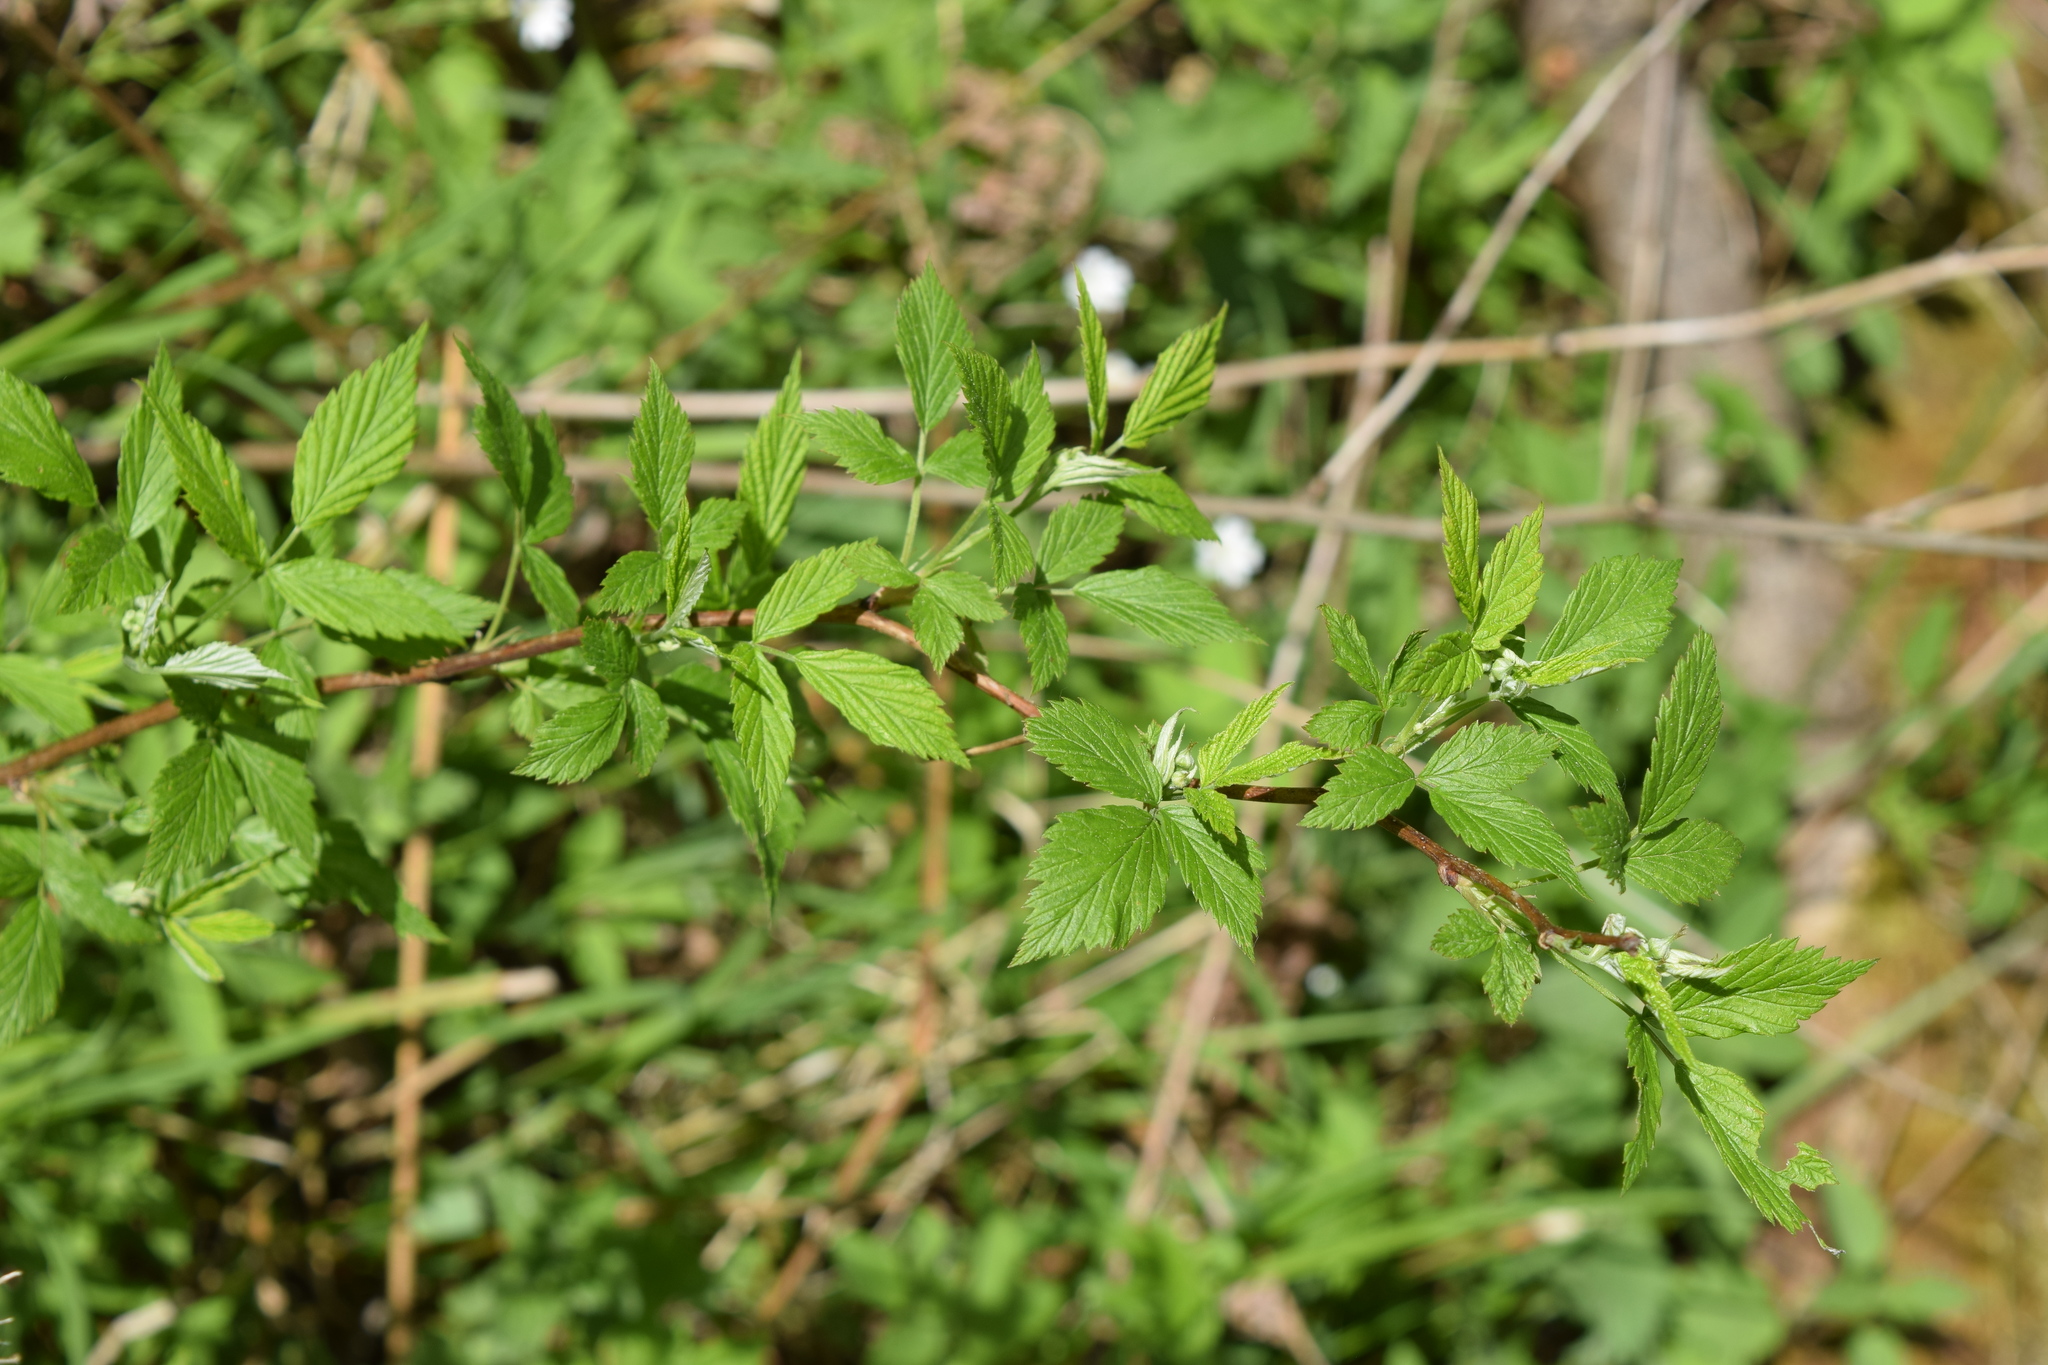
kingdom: Plantae
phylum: Tracheophyta
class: Magnoliopsida
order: Rosales
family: Rosaceae
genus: Rubus
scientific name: Rubus idaeus
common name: Raspberry
